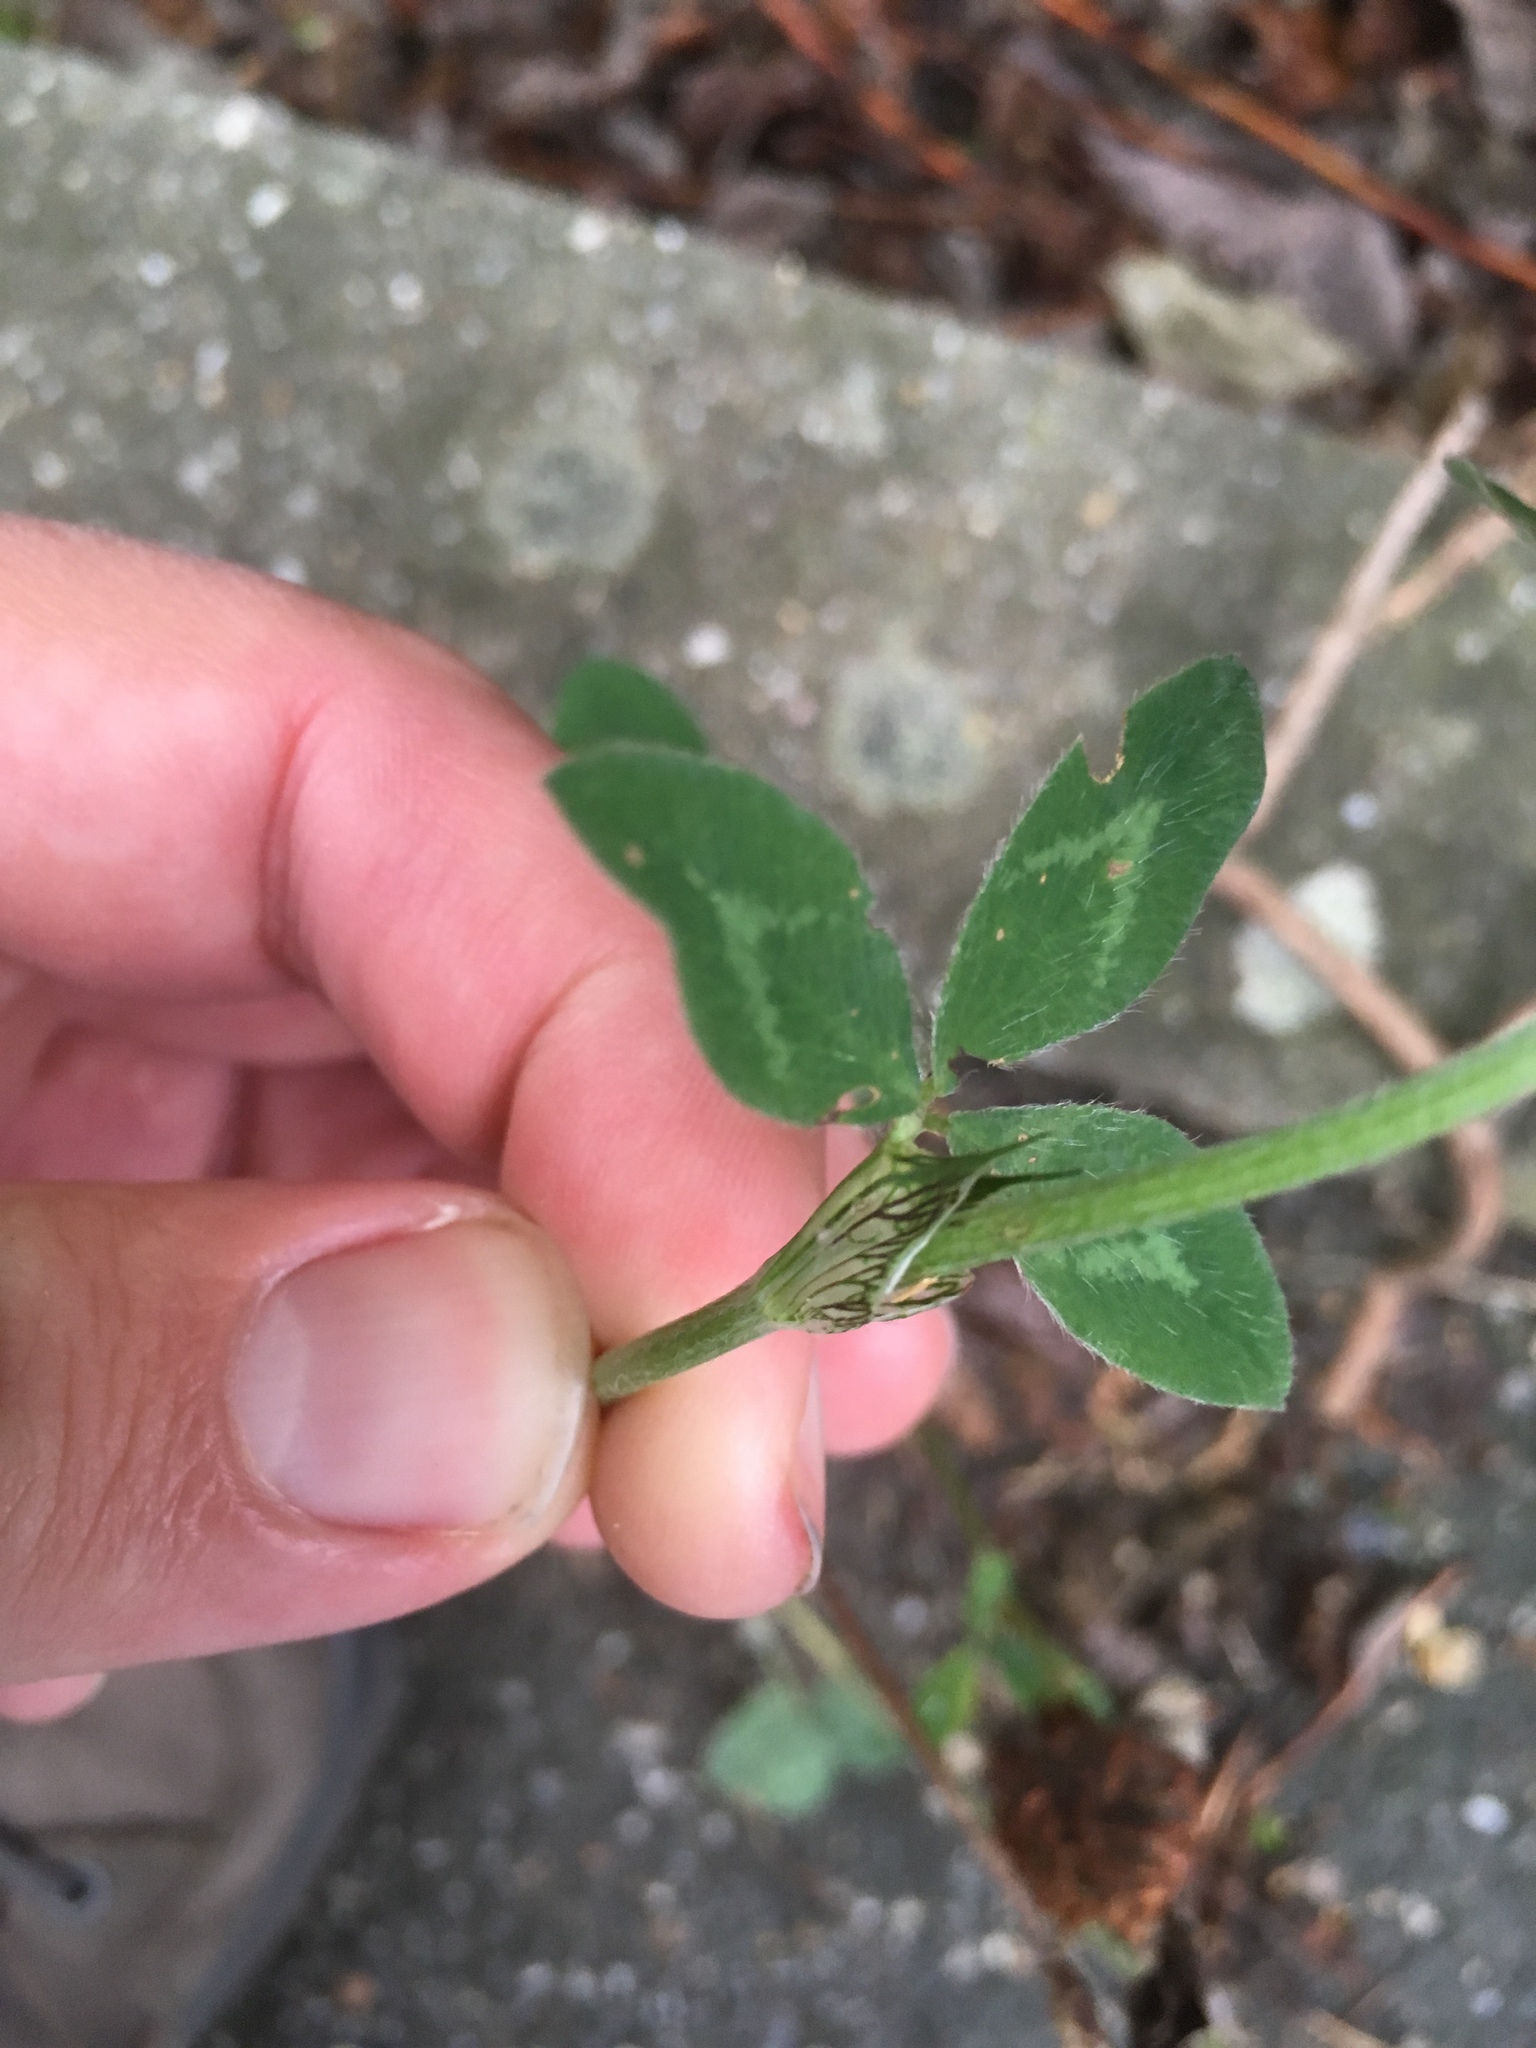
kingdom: Plantae
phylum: Tracheophyta
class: Magnoliopsida
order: Fabales
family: Fabaceae
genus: Trifolium
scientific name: Trifolium pratense
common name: Red clover
